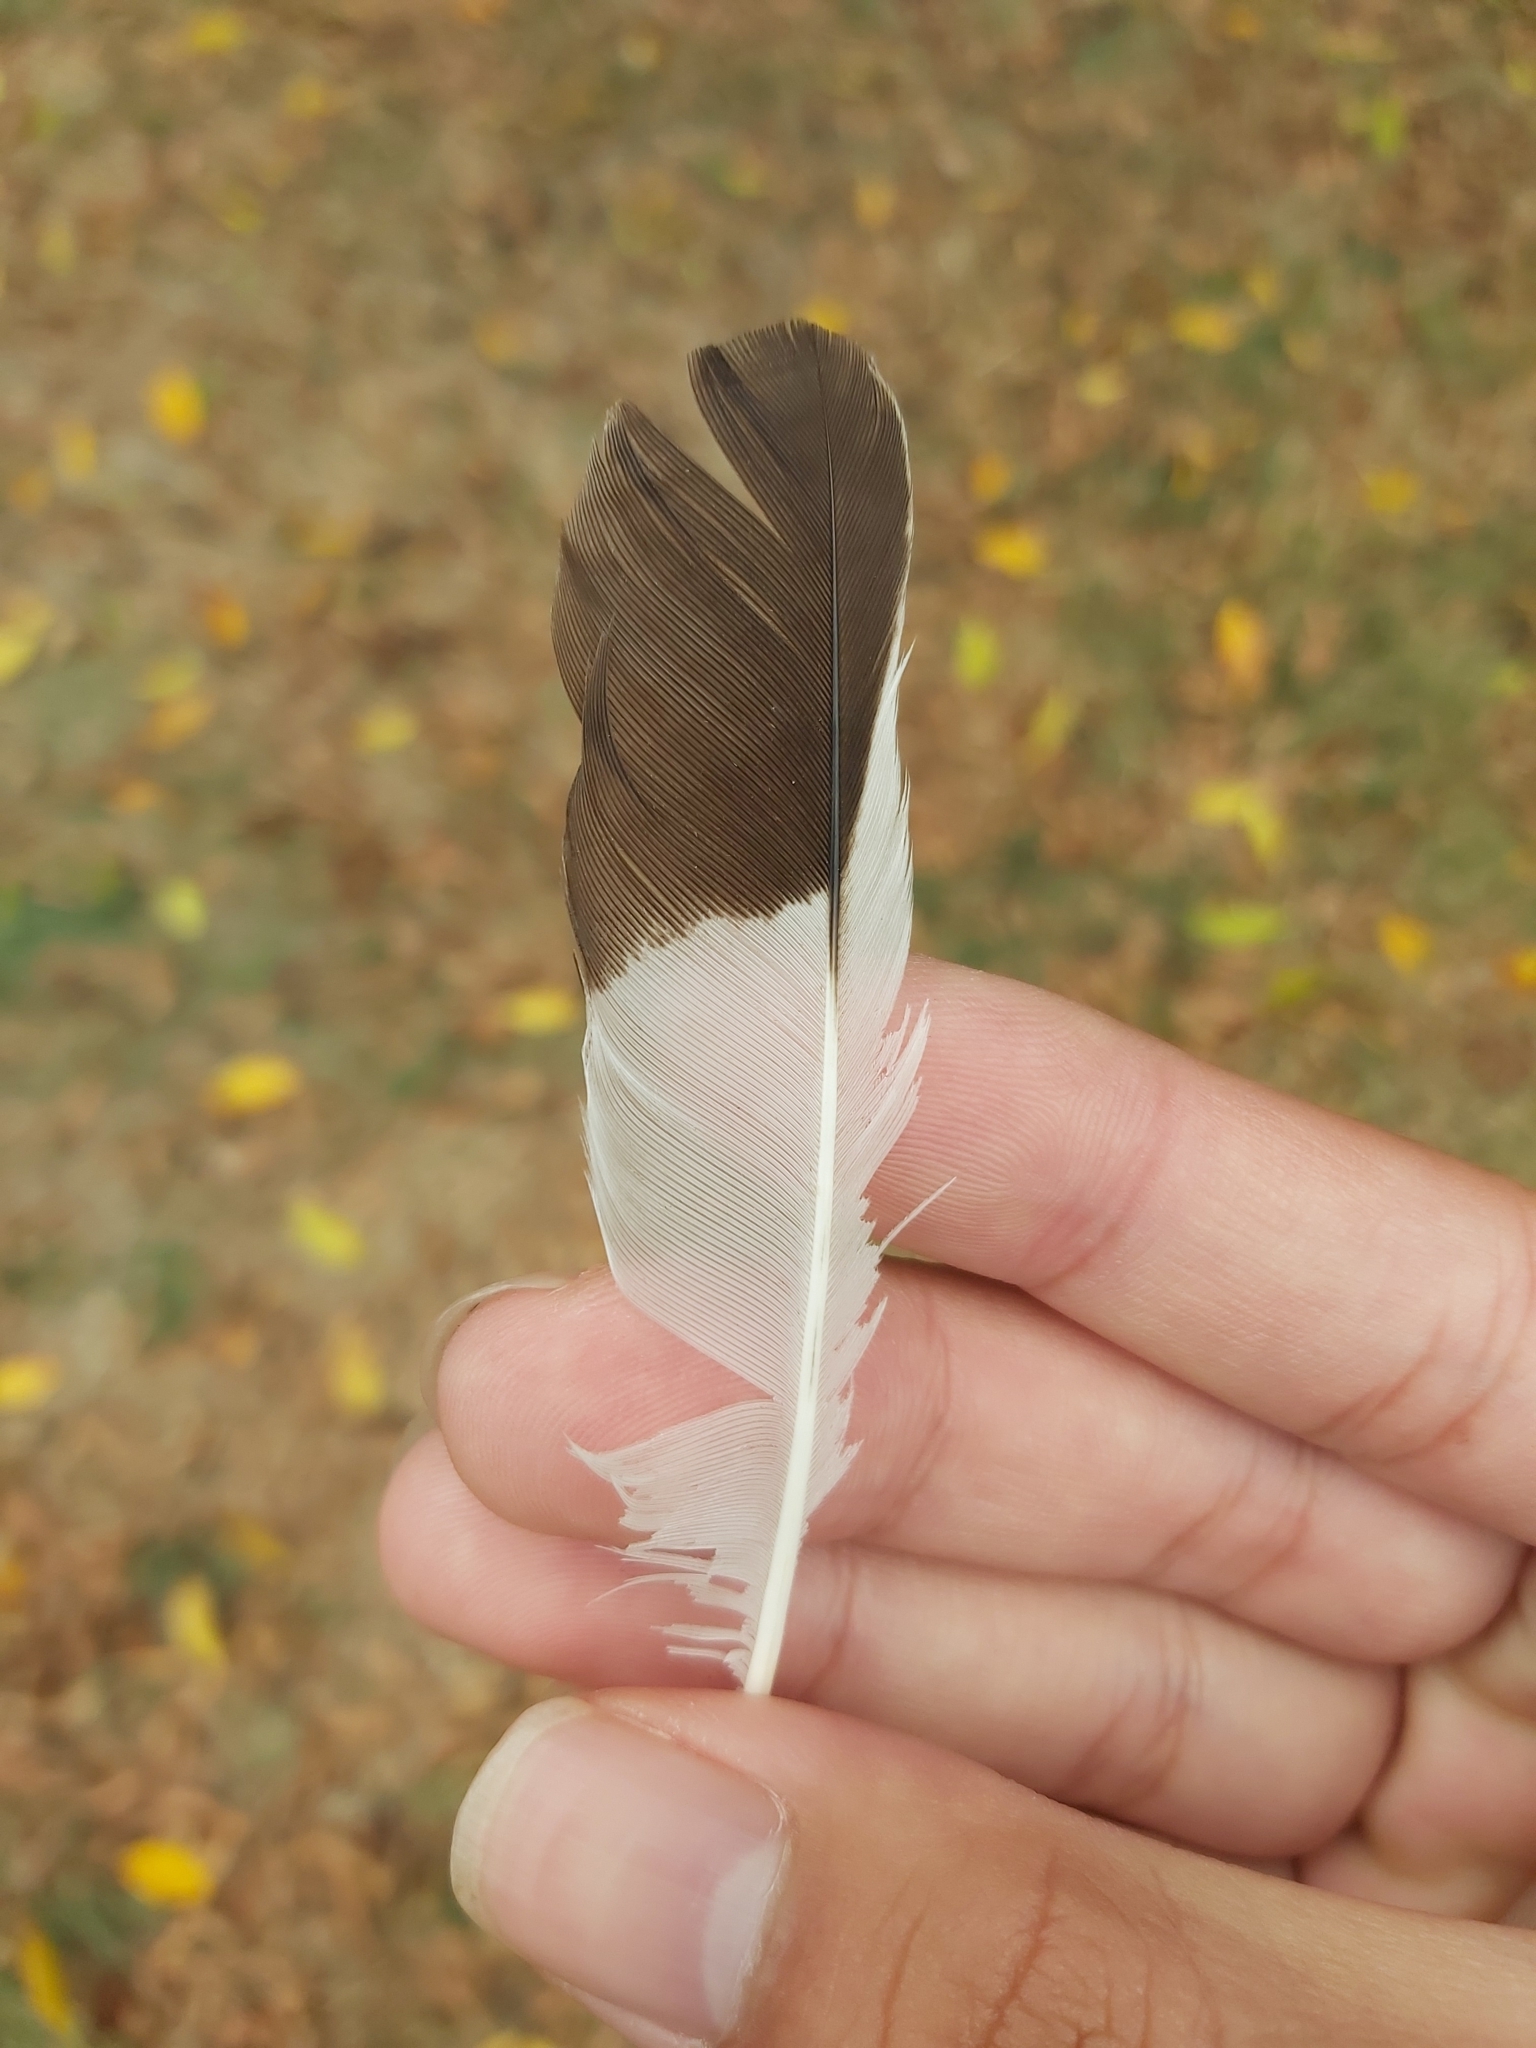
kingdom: Animalia
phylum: Chordata
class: Aves
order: Passeriformes
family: Sturnidae
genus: Acridotheres
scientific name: Acridotheres tristis
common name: Common myna
